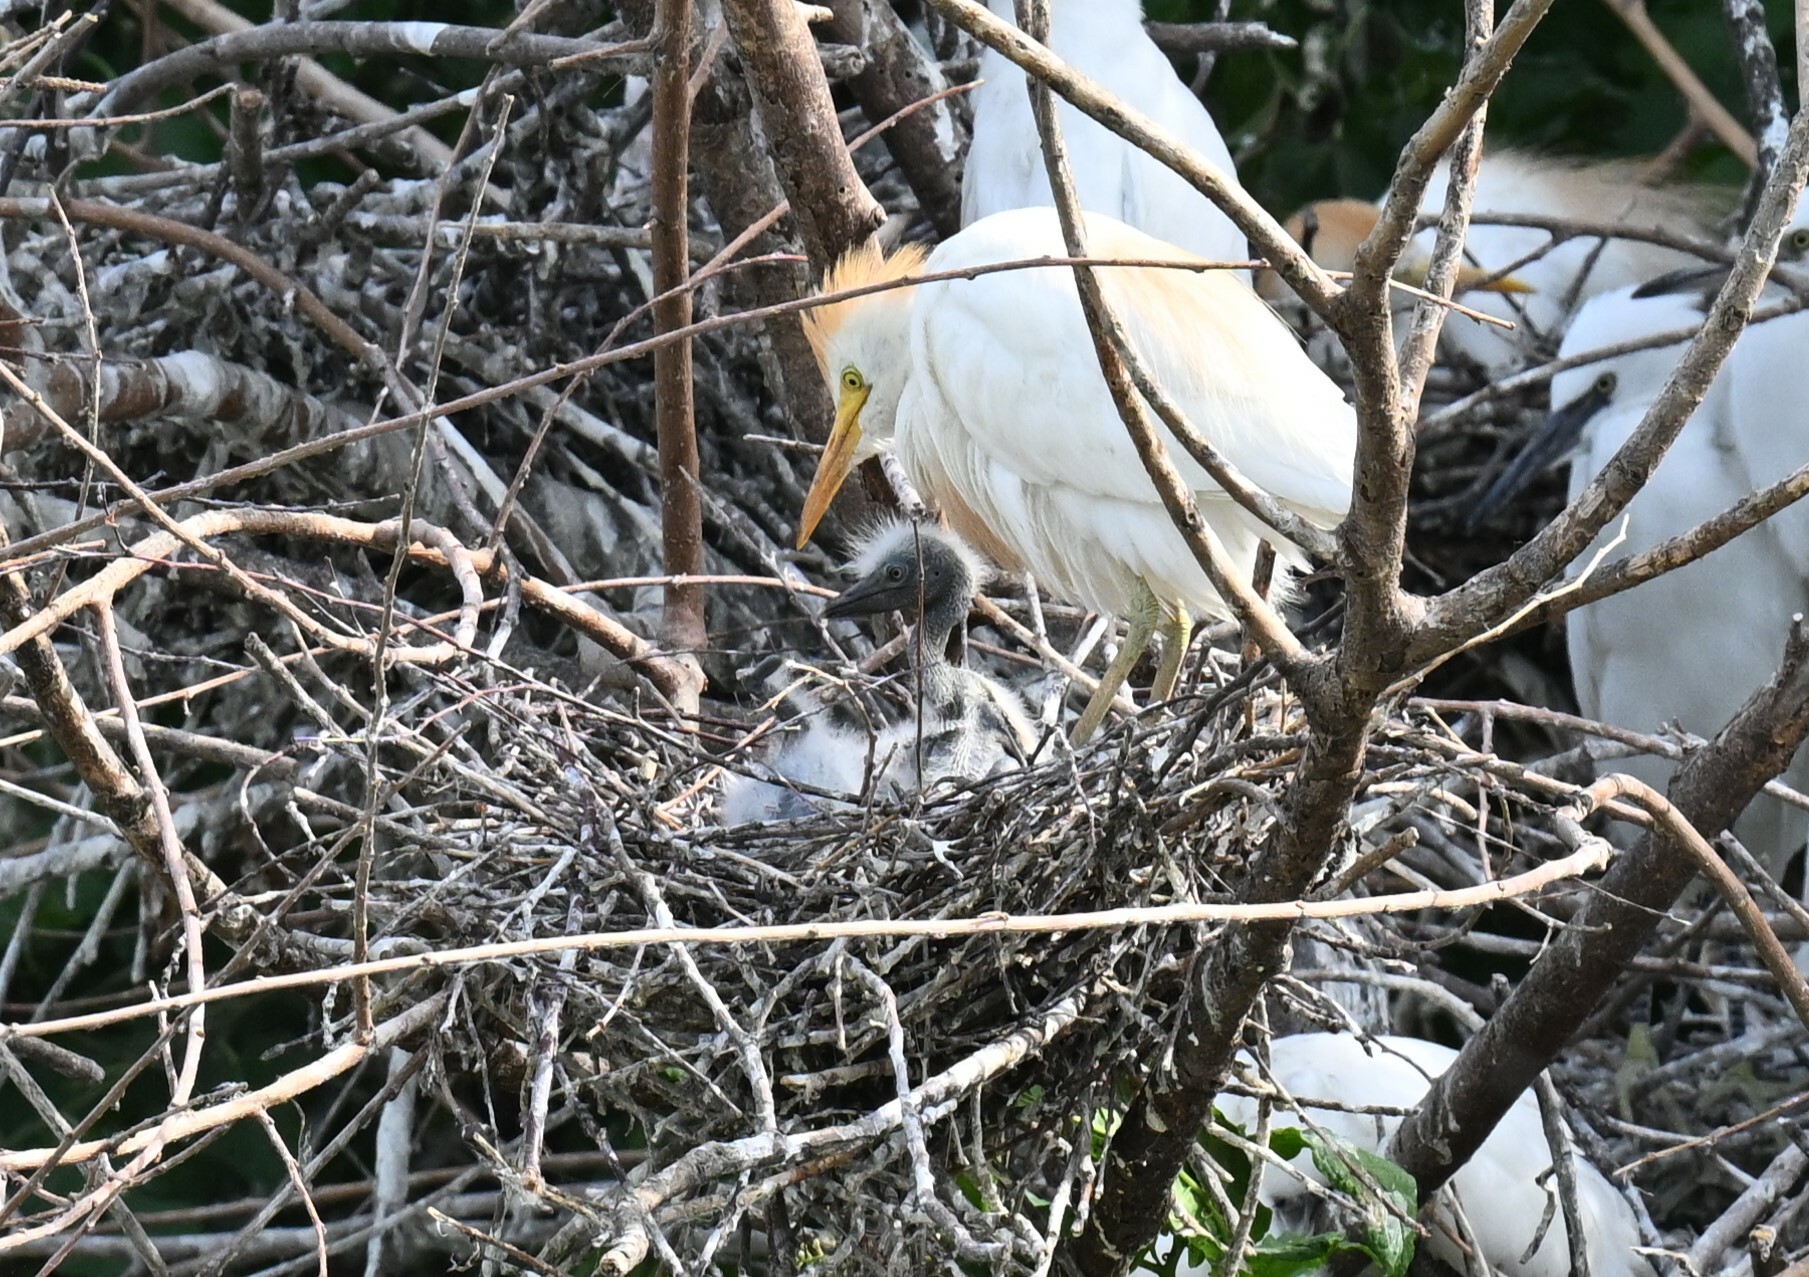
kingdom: Animalia
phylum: Chordata
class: Aves
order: Pelecaniformes
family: Ardeidae
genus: Bubulcus
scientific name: Bubulcus ibis
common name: Cattle egret
